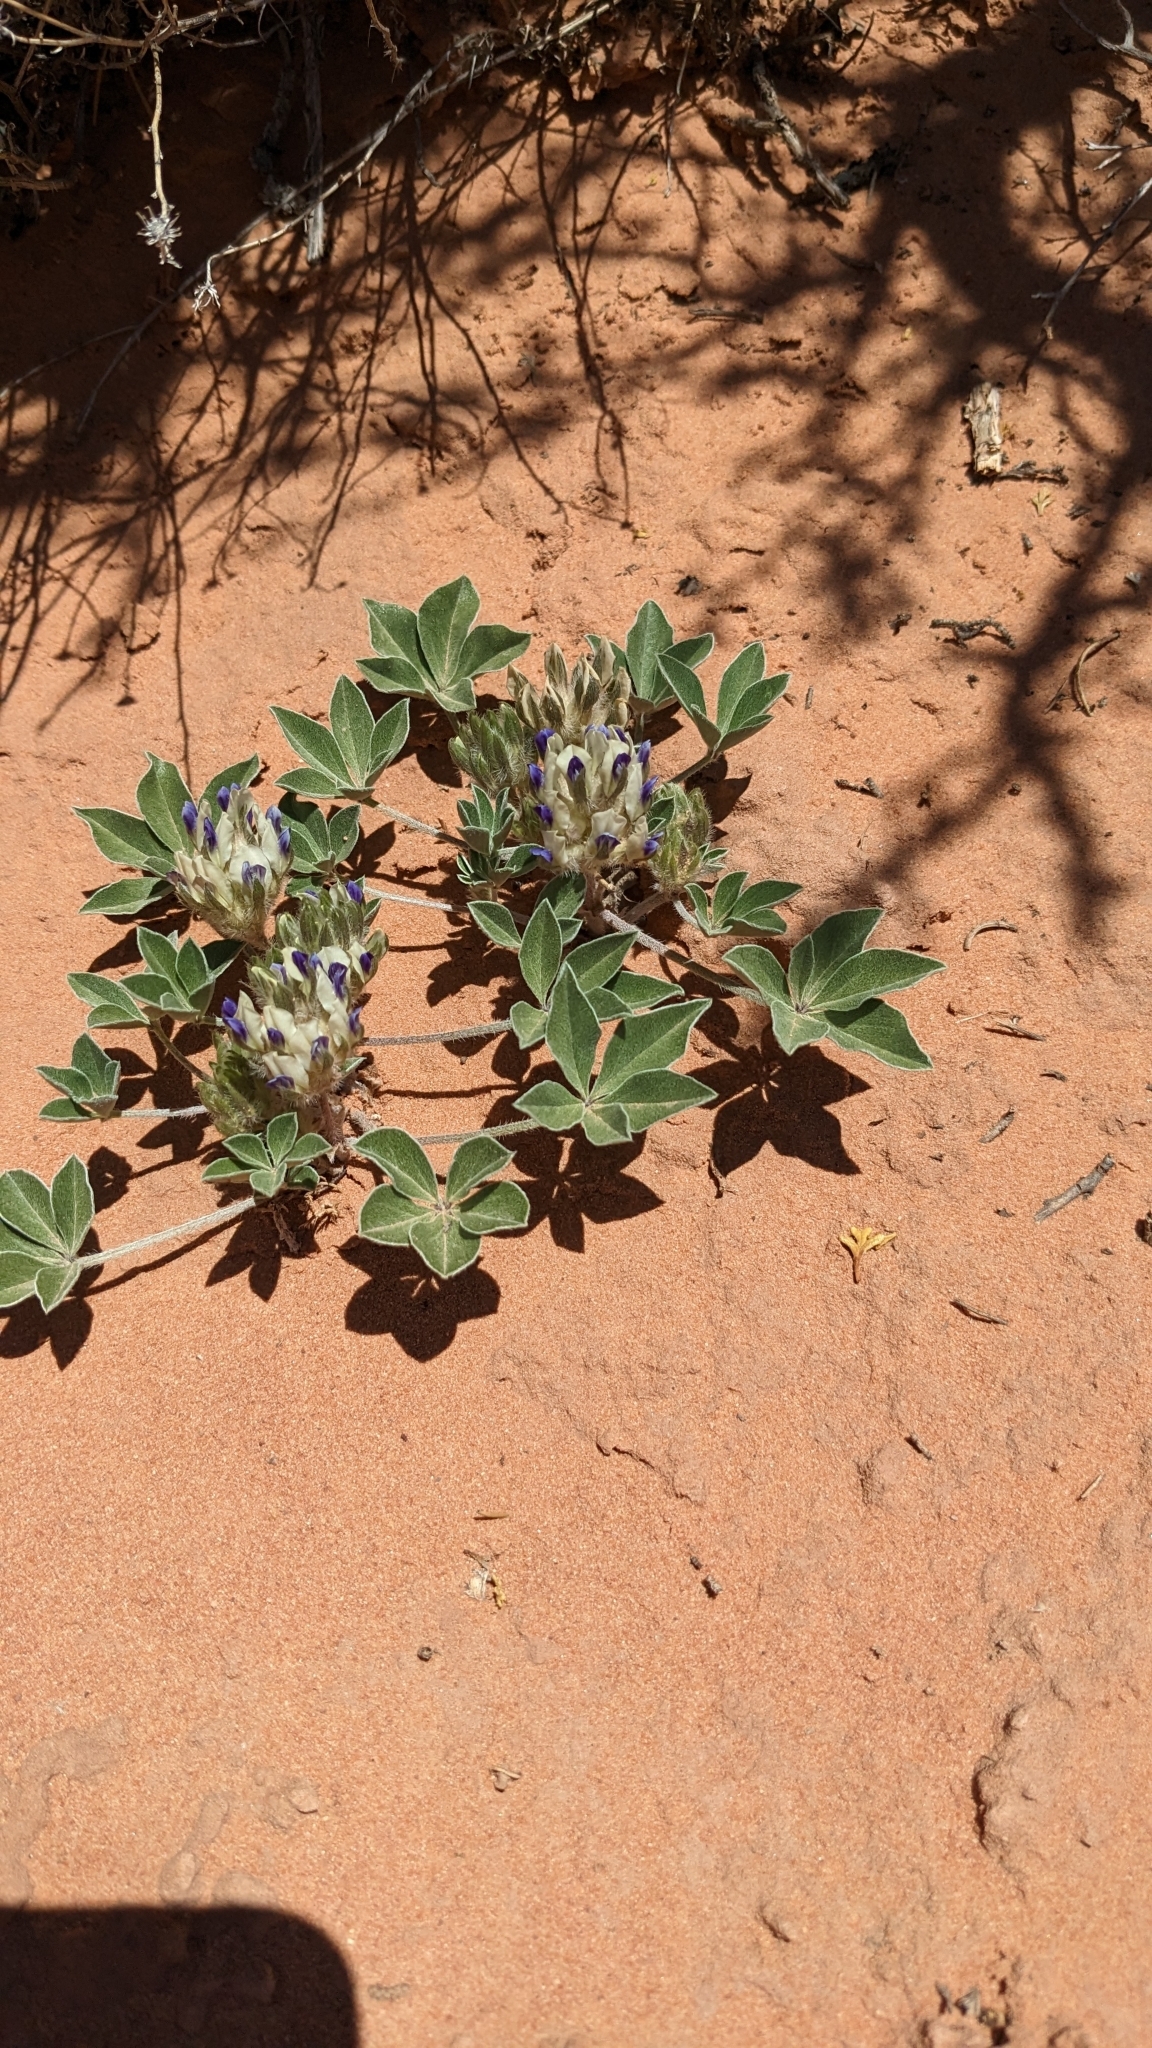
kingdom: Plantae
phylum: Tracheophyta
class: Magnoliopsida
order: Fabales
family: Fabaceae
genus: Pediomelum
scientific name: Pediomelum megalanthum
